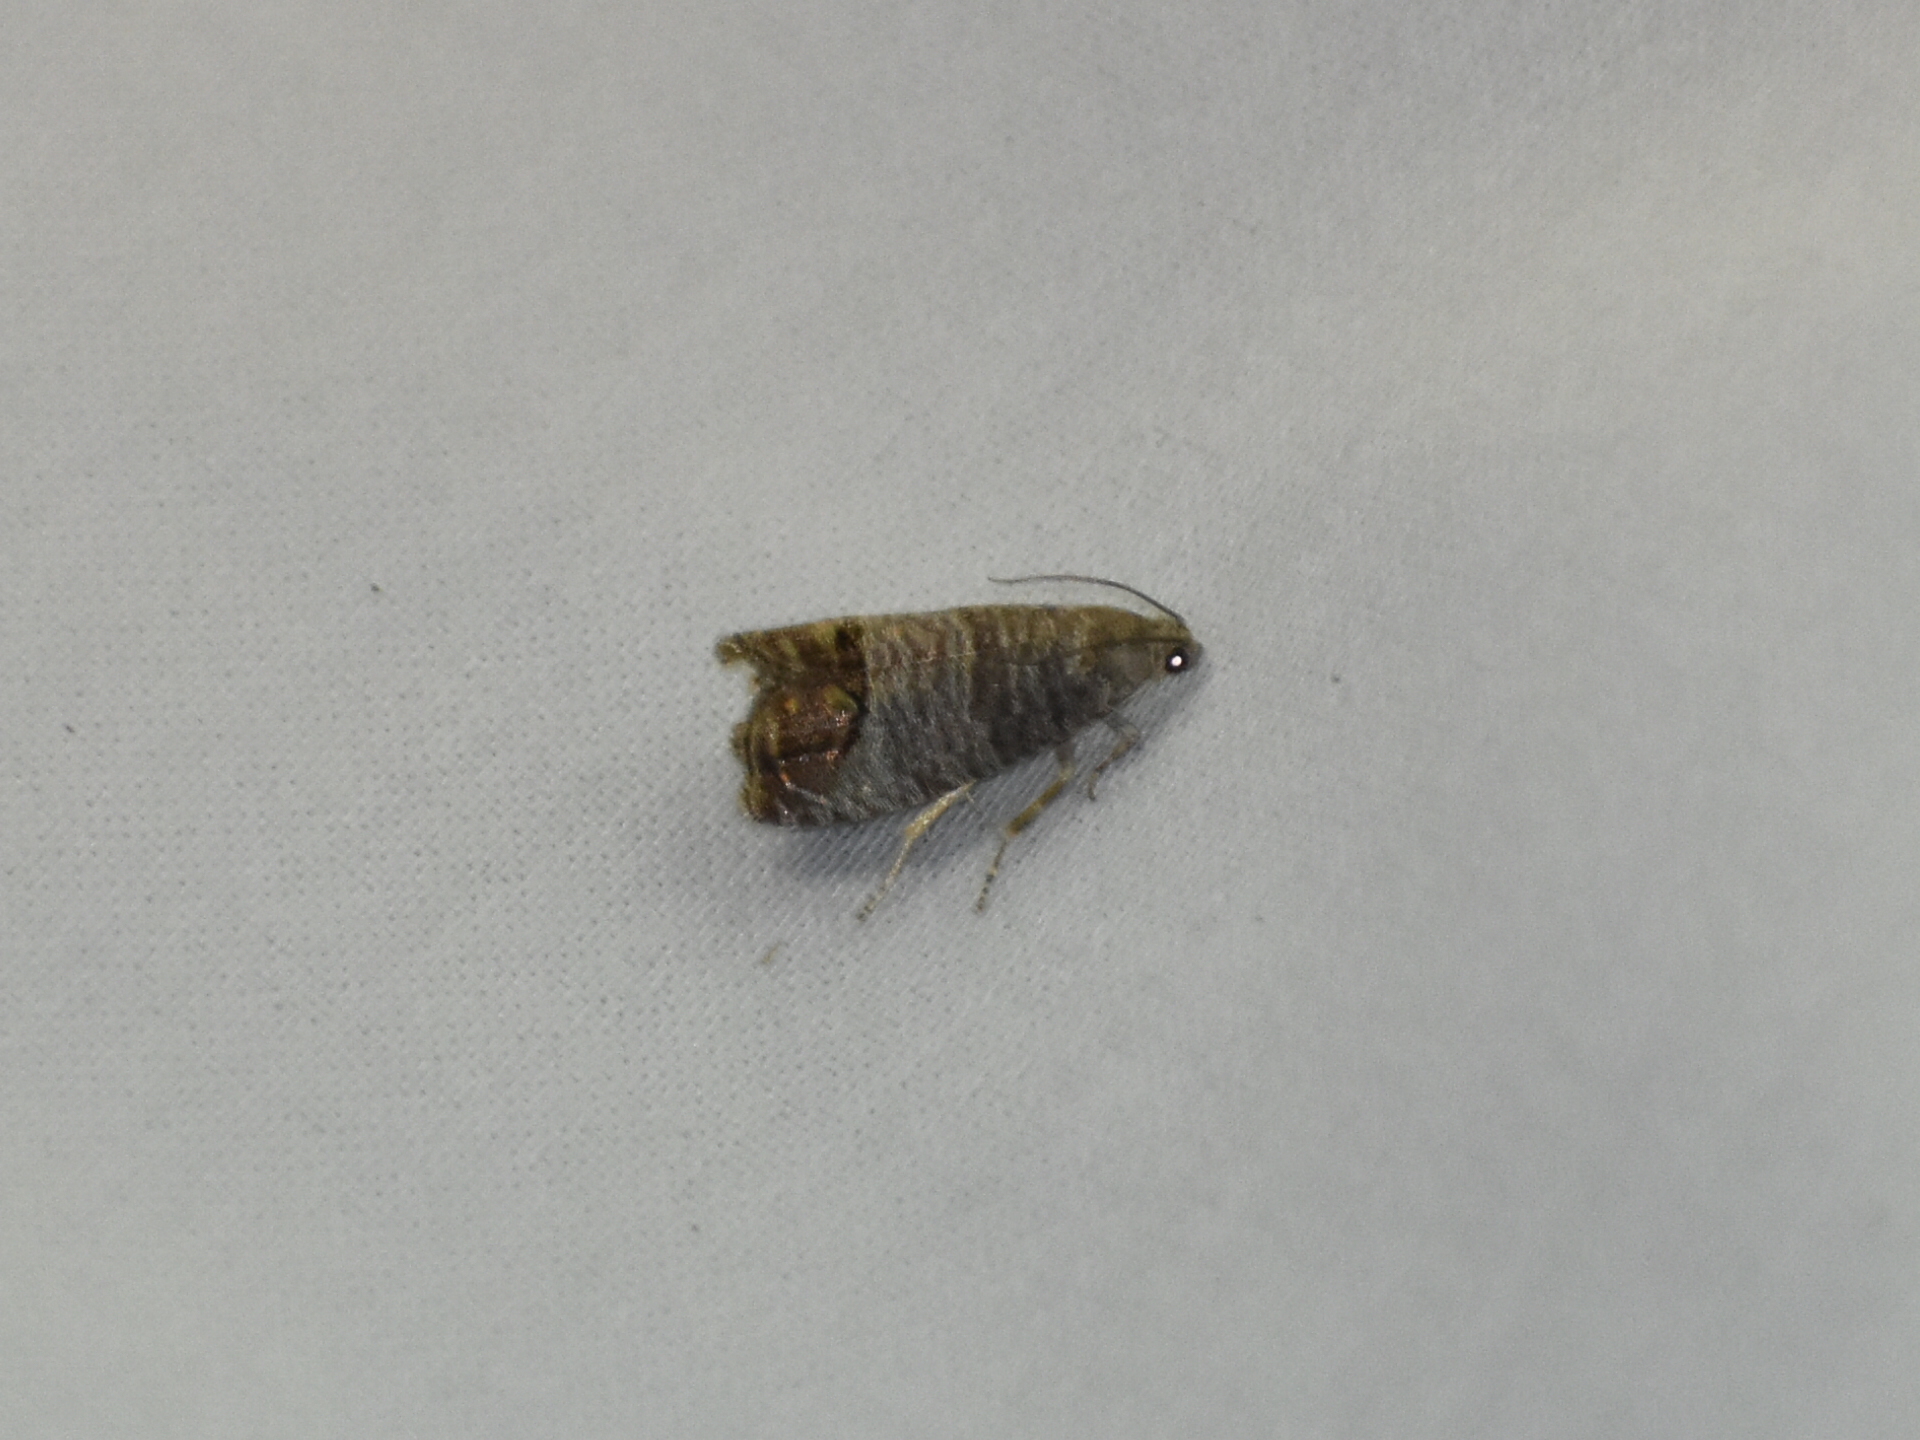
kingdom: Animalia
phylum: Arthropoda
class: Insecta
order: Lepidoptera
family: Tortricidae
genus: Cydia
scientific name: Cydia pomonella
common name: Codling moth
